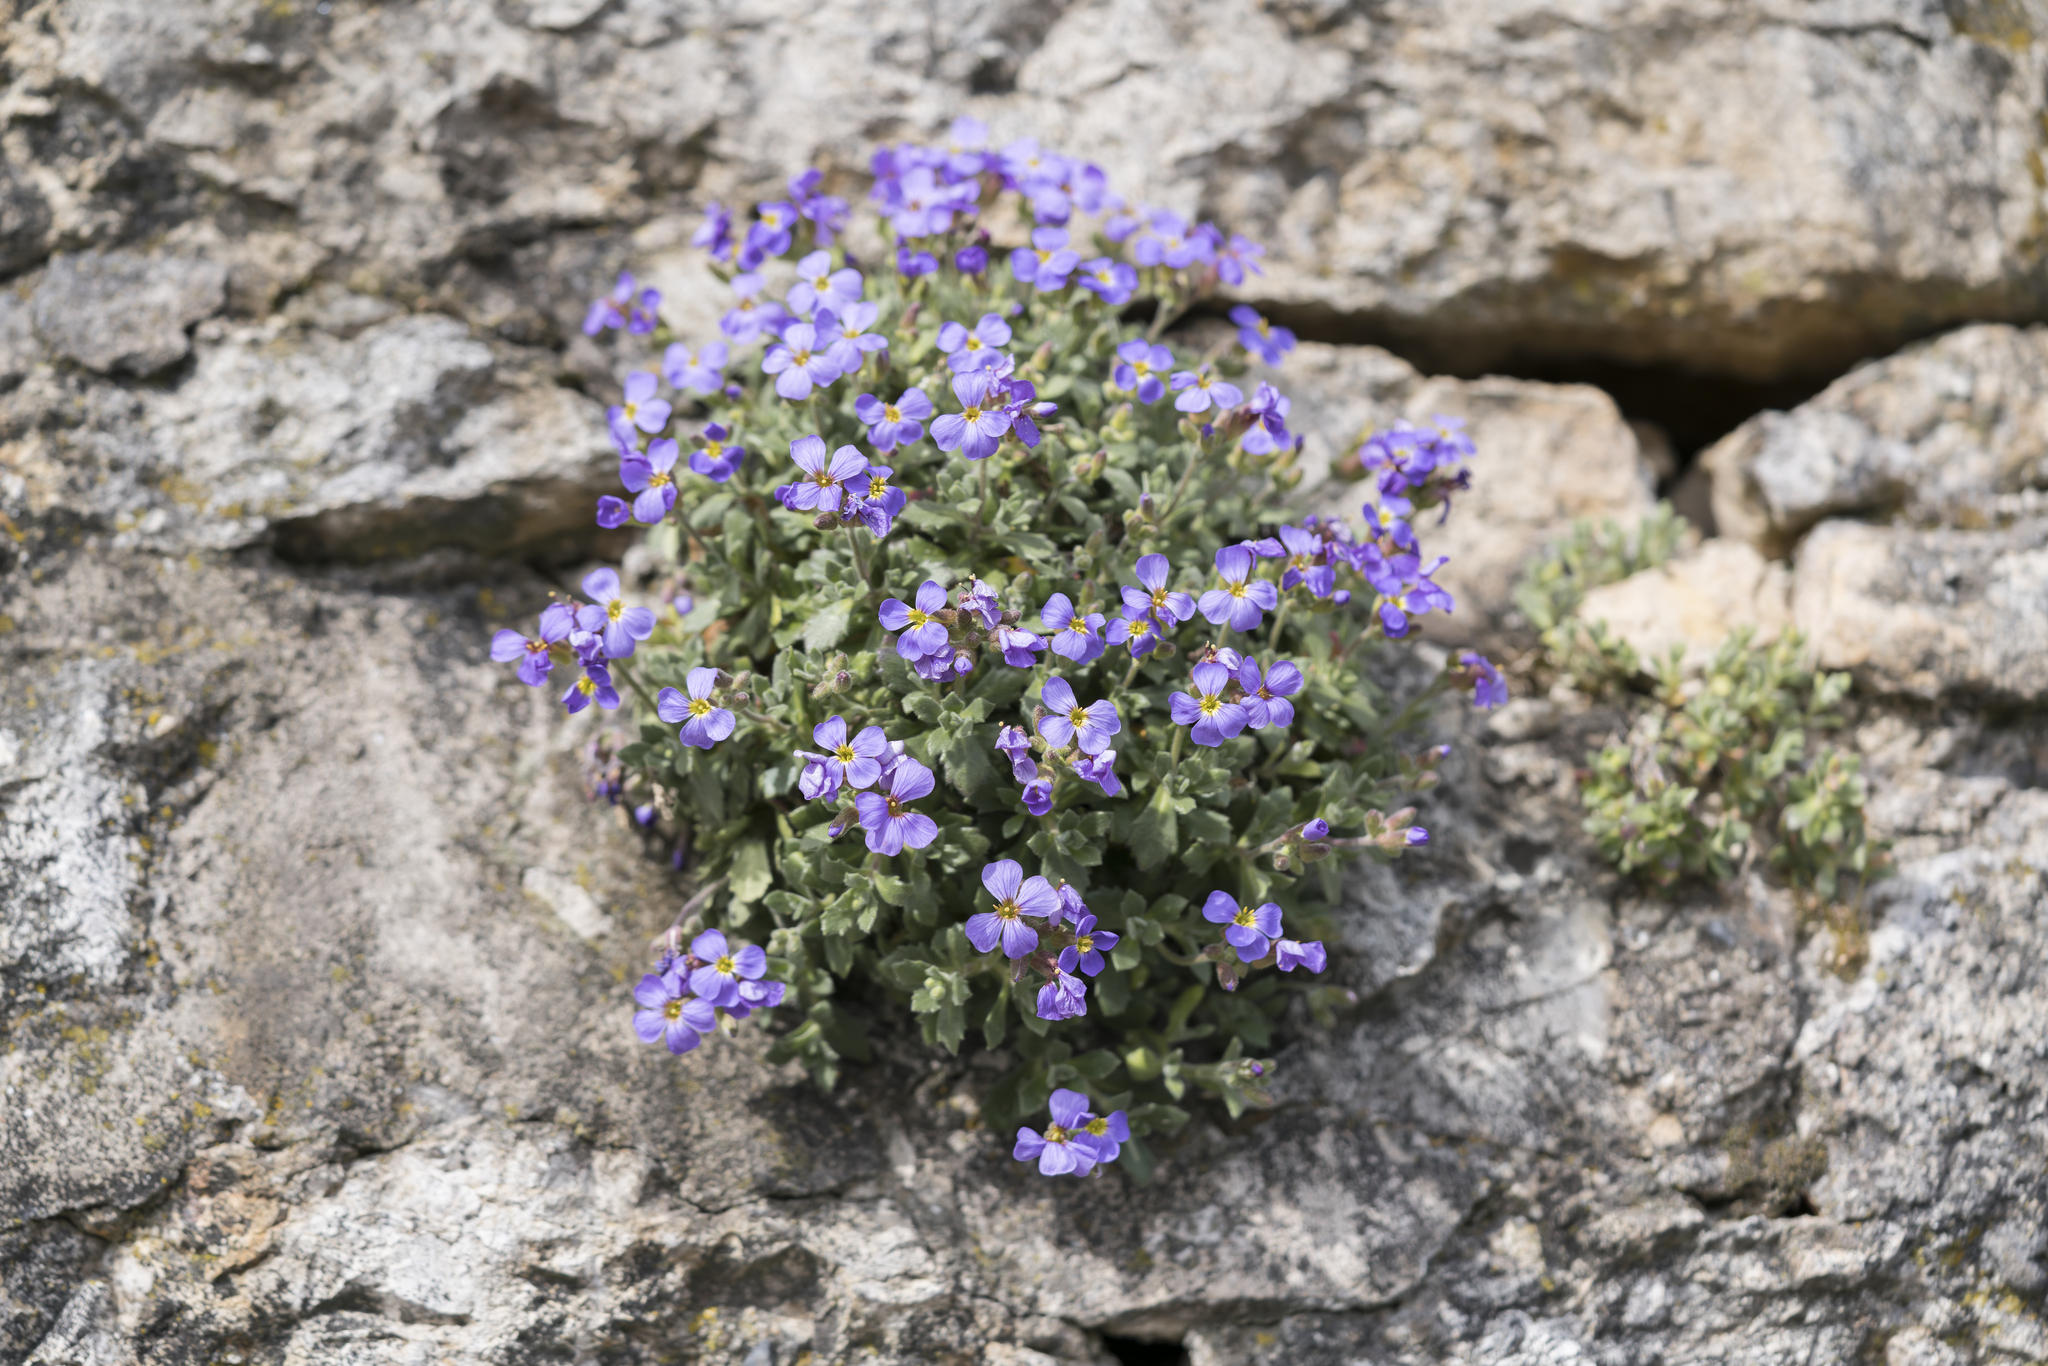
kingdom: Plantae
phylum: Tracheophyta
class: Magnoliopsida
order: Brassicales
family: Brassicaceae
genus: Aubrieta
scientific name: Aubrieta deltoidea
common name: Aubretia
